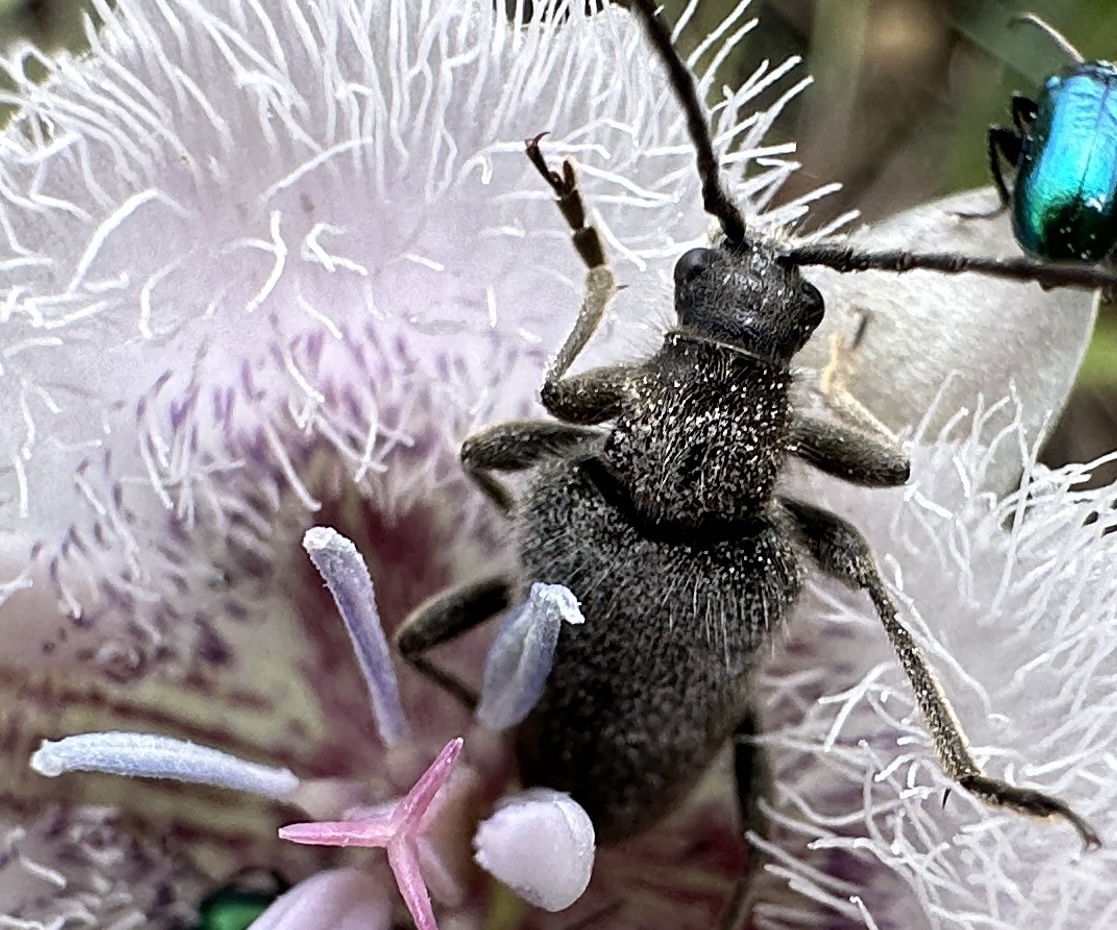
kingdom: Animalia
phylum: Arthropoda
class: Insecta
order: Coleoptera
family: Cerambycidae
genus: Brachysomida
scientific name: Brachysomida californica
